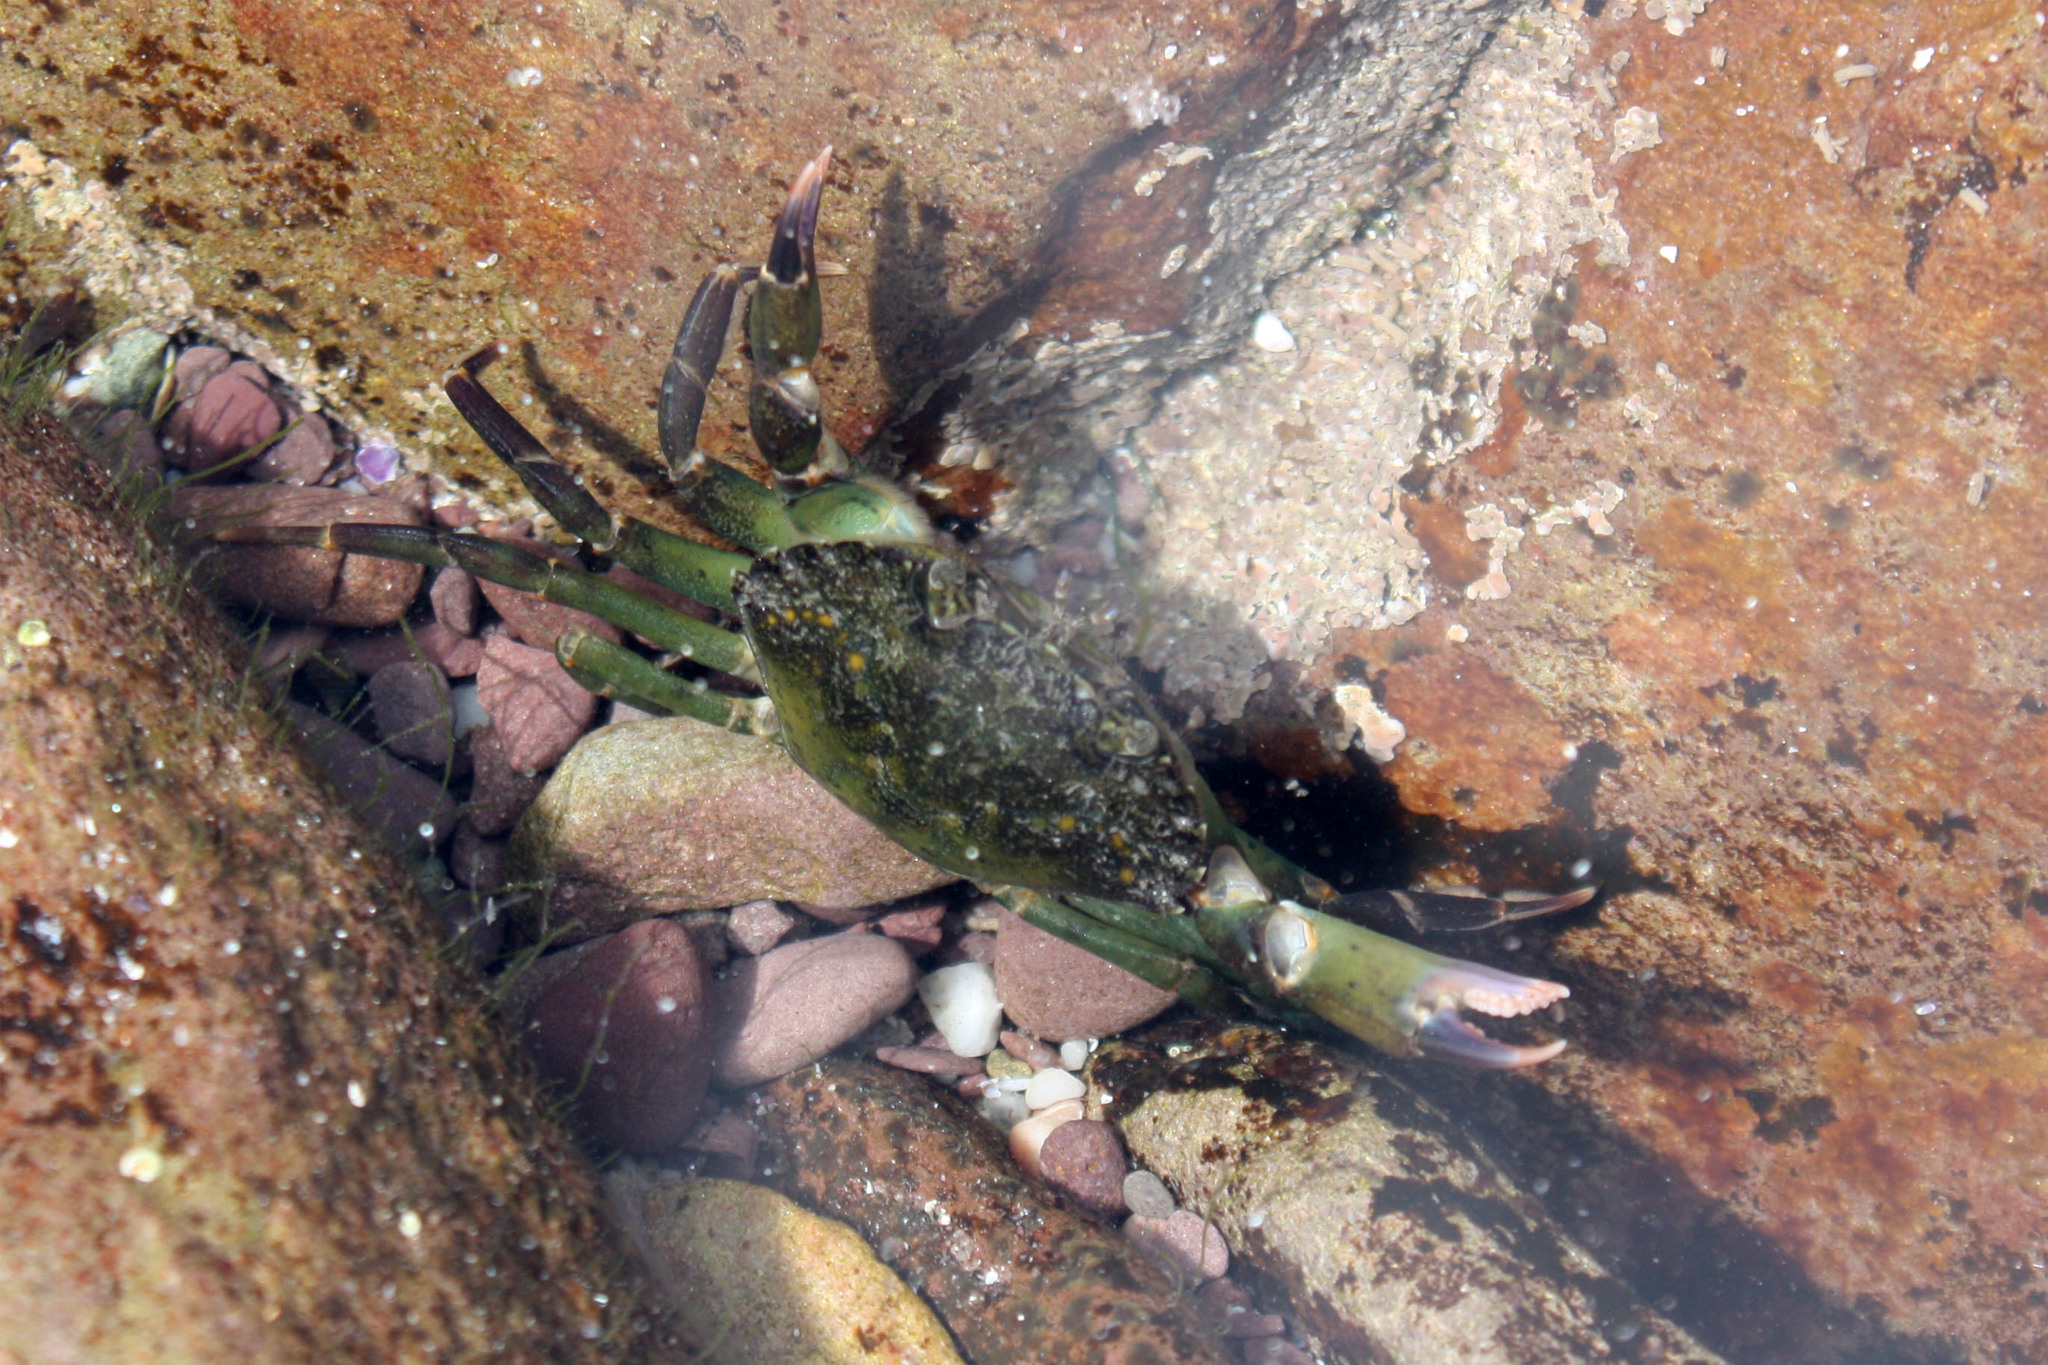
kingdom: Animalia
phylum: Arthropoda
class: Malacostraca
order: Decapoda
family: Carcinidae
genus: Carcinus
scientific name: Carcinus maenas
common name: European green crab
